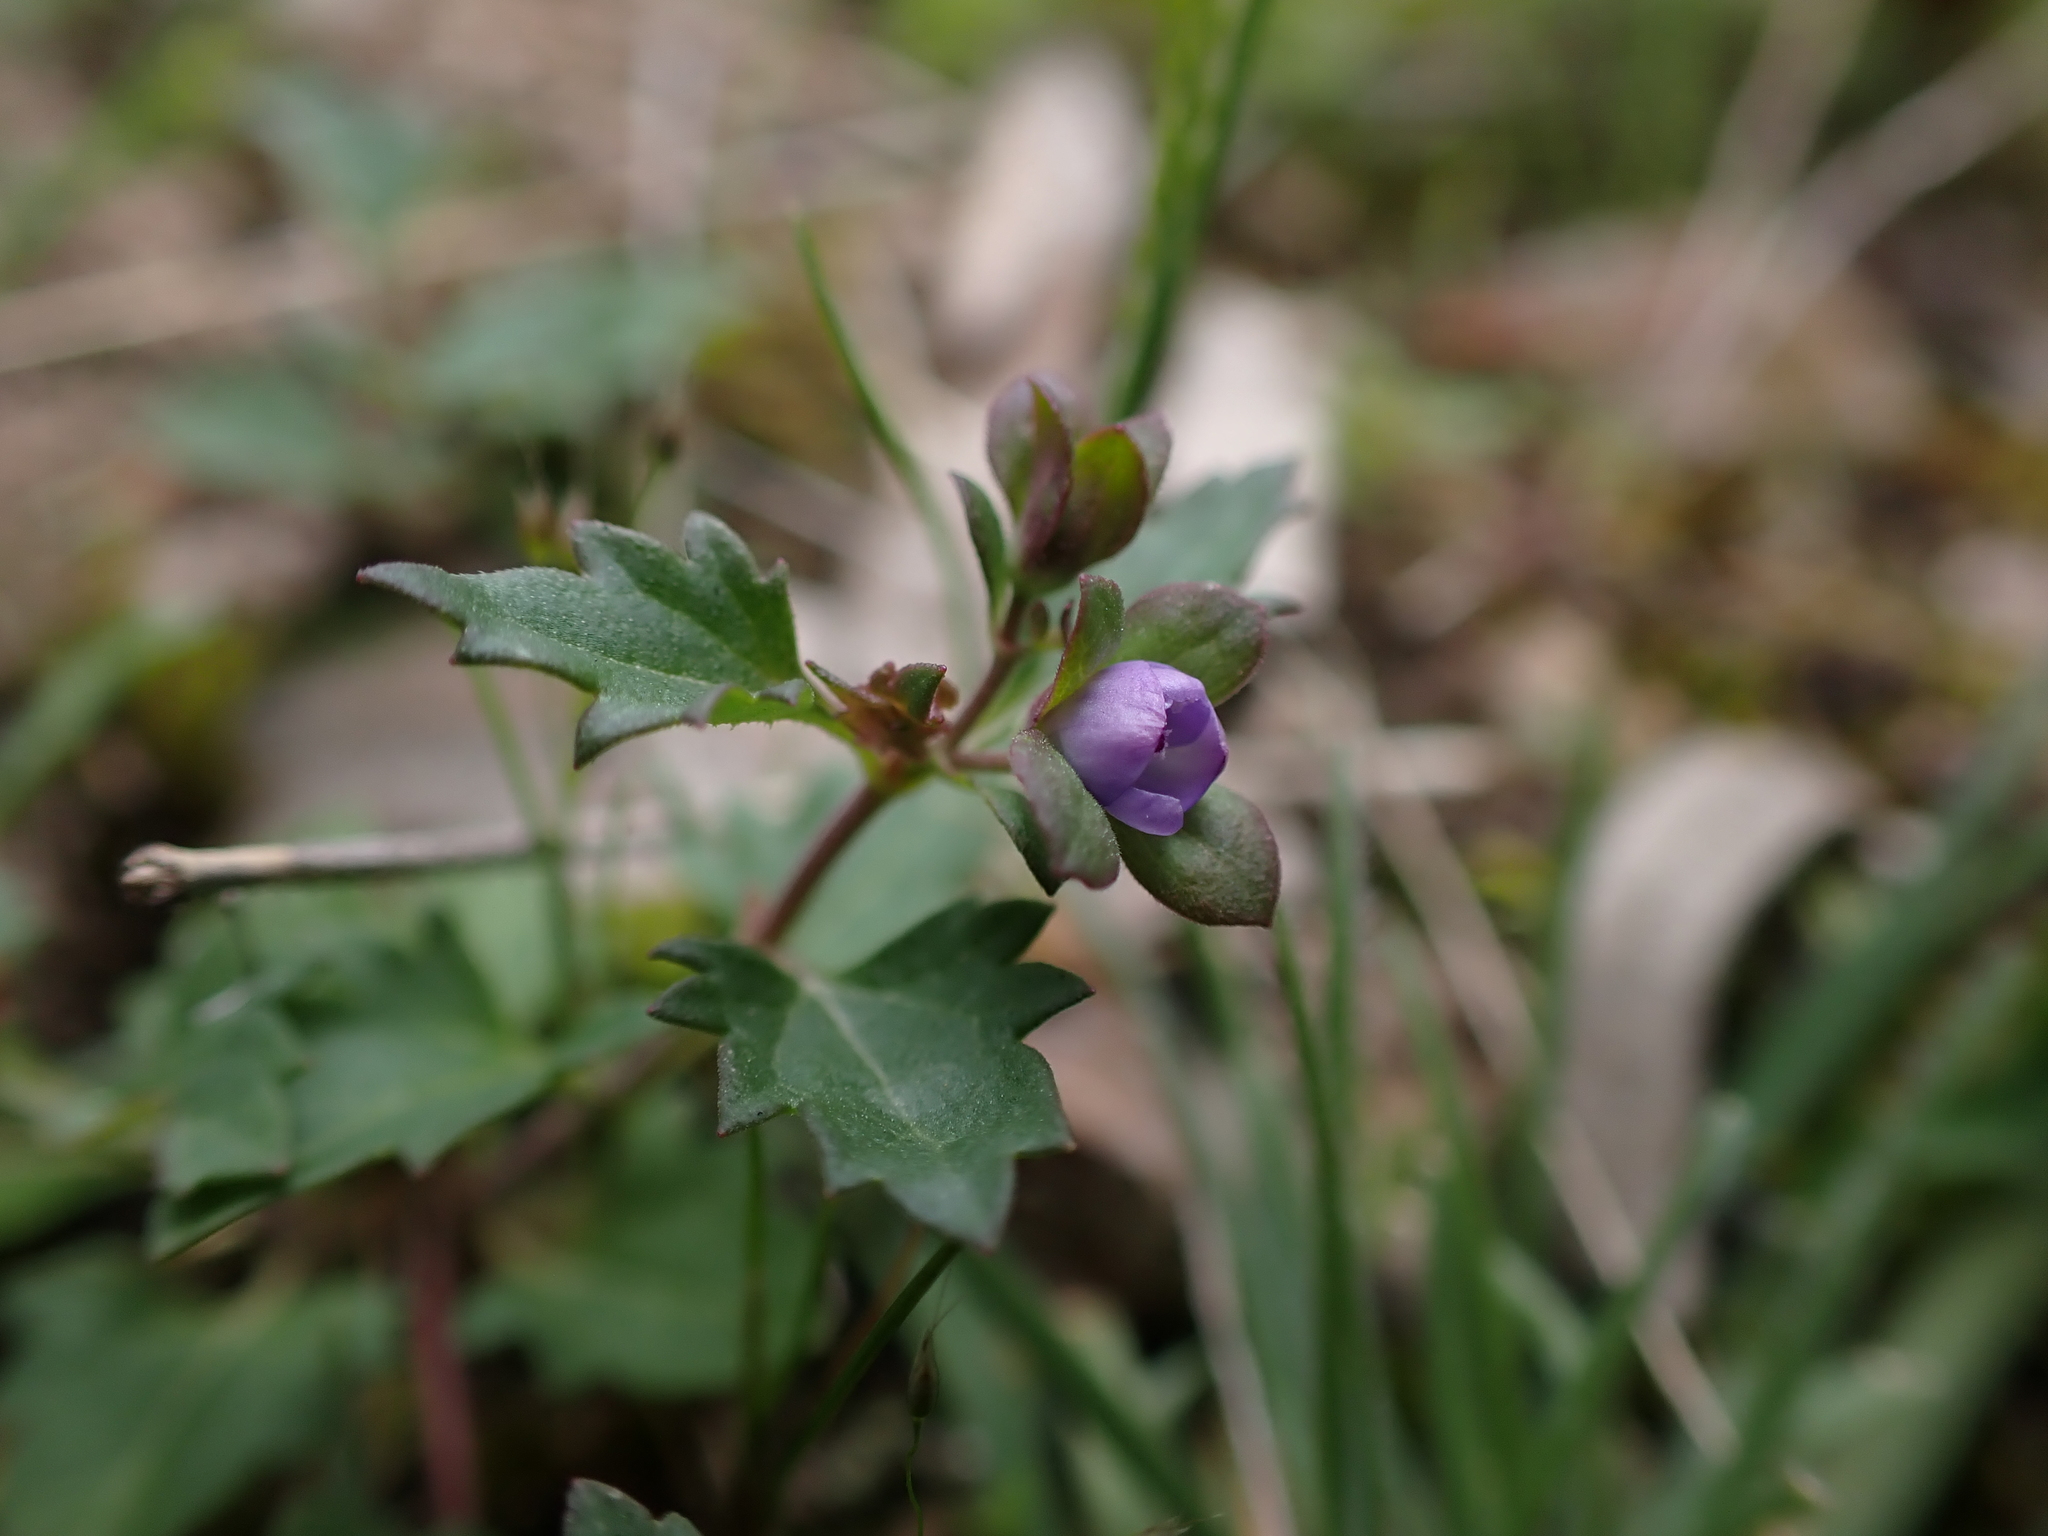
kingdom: Plantae
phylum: Tracheophyta
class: Magnoliopsida
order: Lamiales
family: Plantaginaceae
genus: Veronica
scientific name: Veronica plebeia
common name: Speedwell
